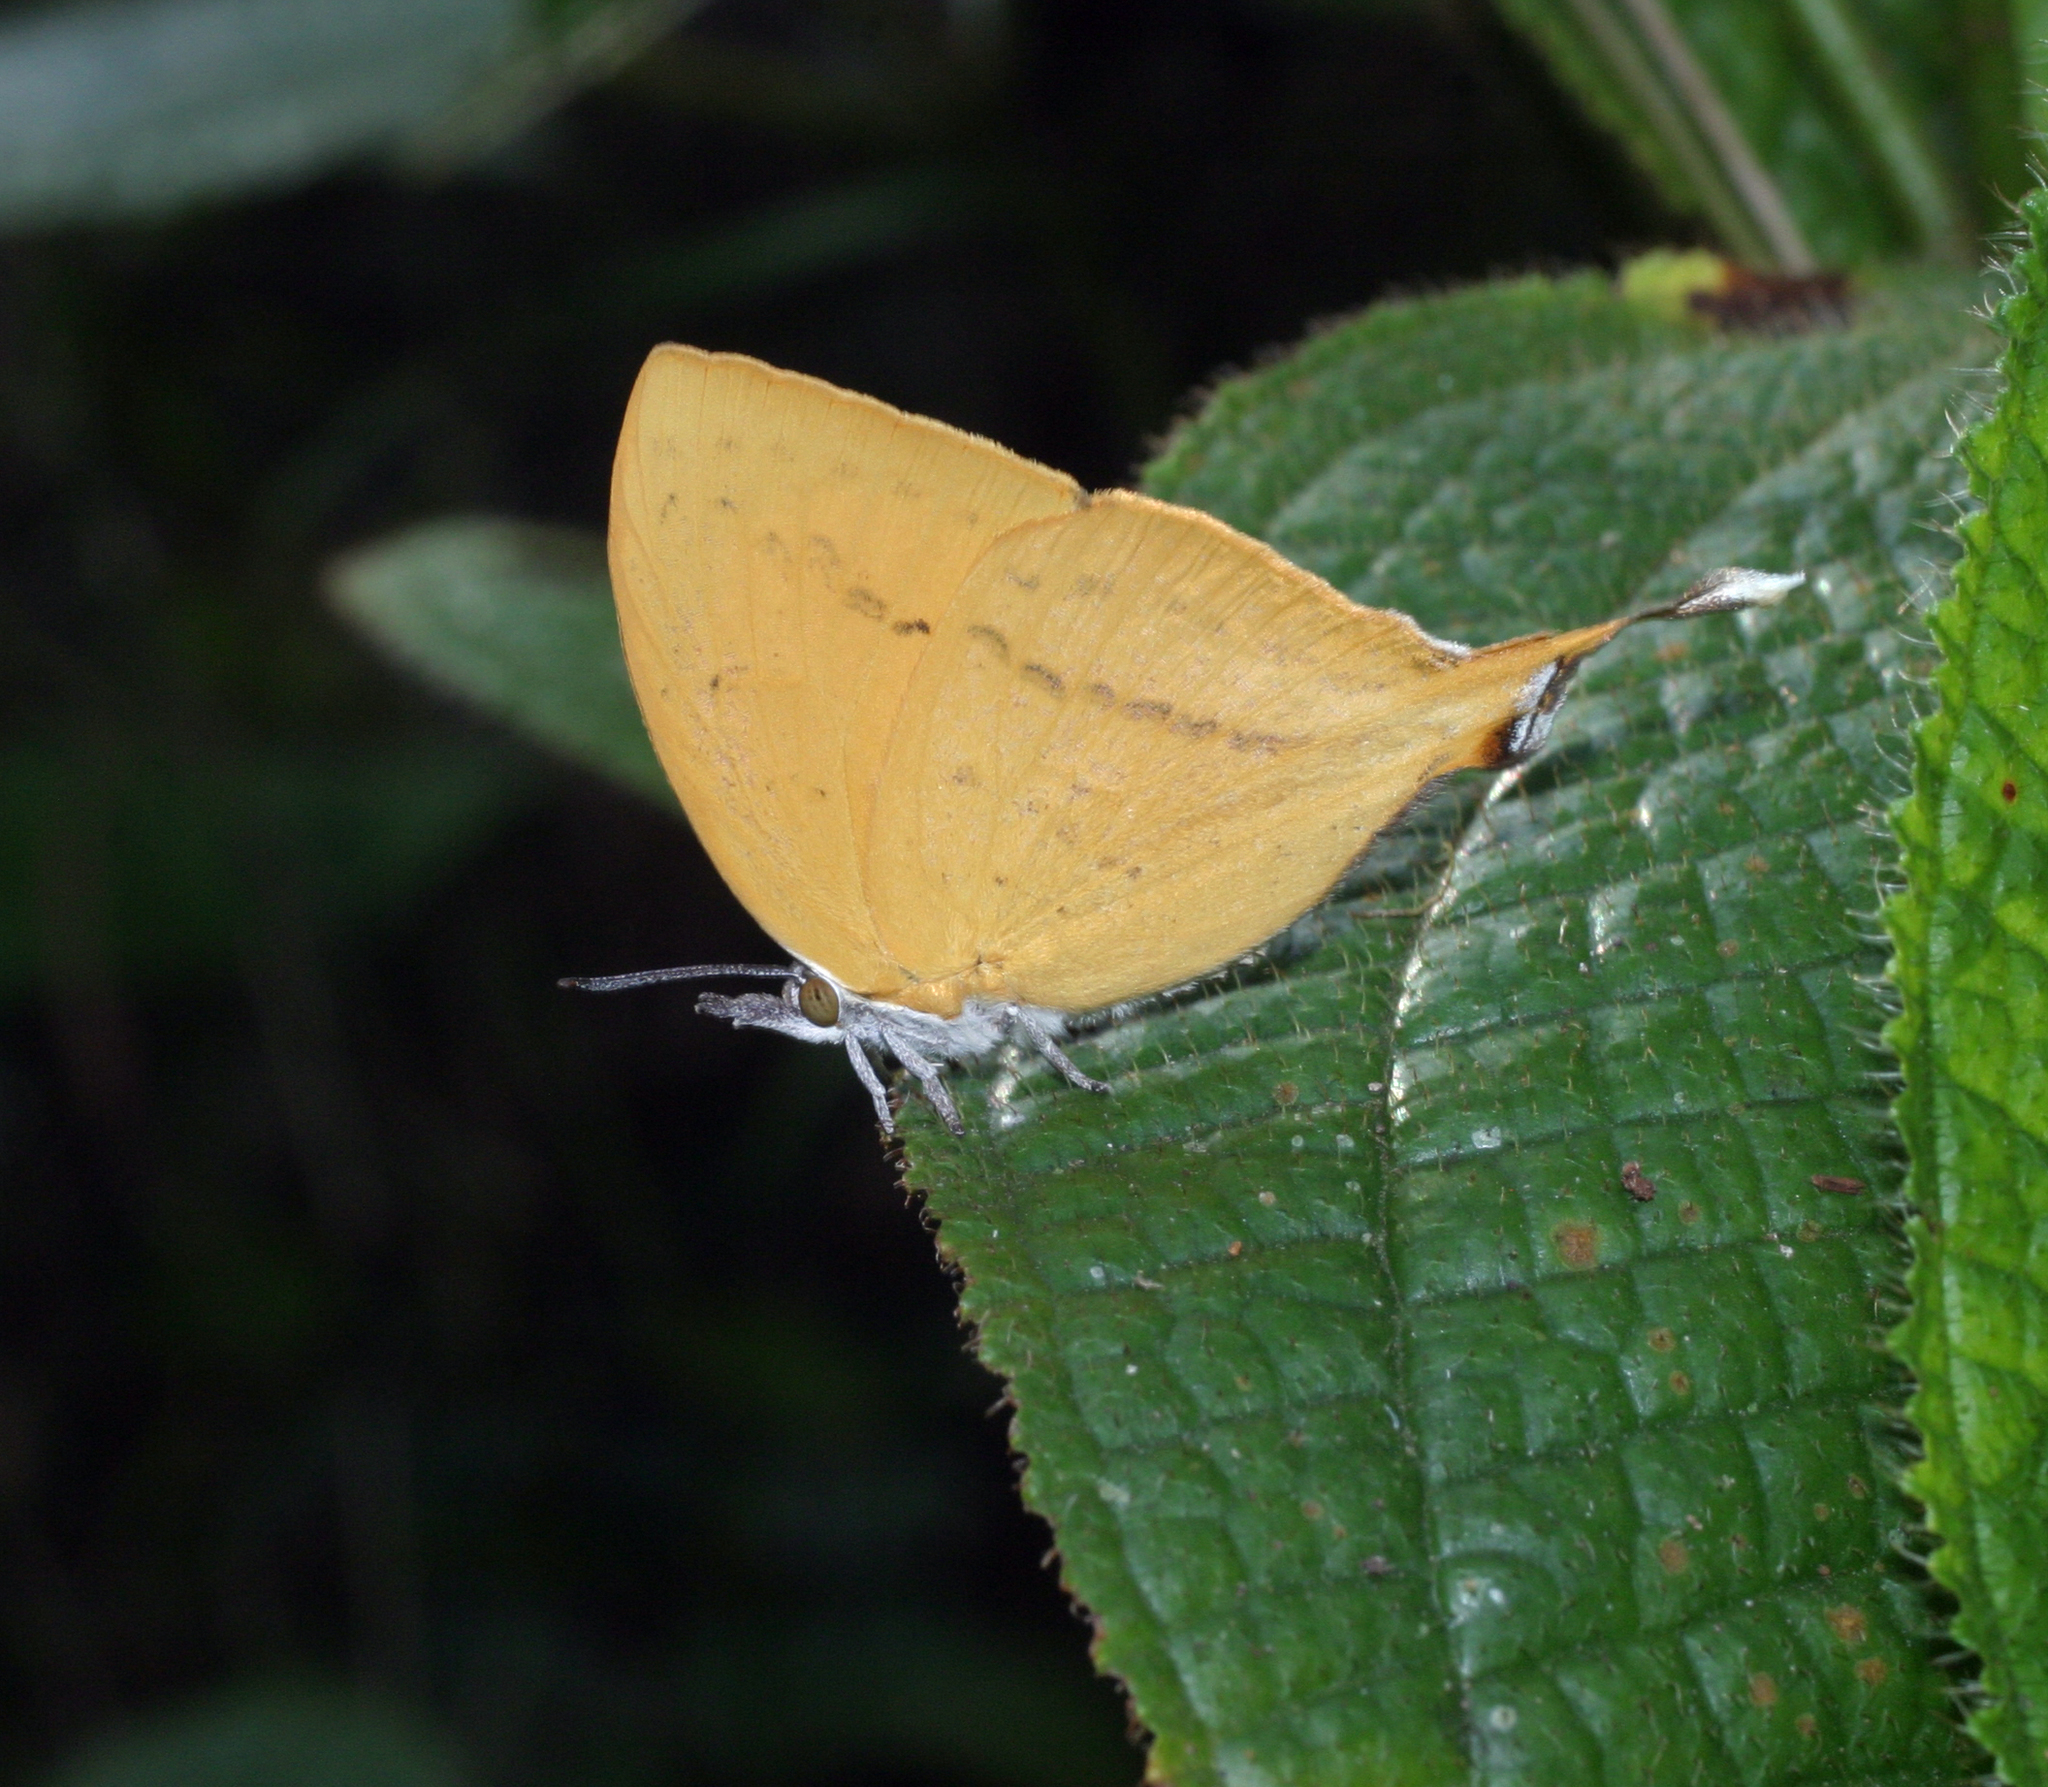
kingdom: Animalia
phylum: Arthropoda
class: Insecta
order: Lepidoptera
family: Lycaenidae
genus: Loxura
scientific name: Loxura atymnus
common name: Common yamfly
